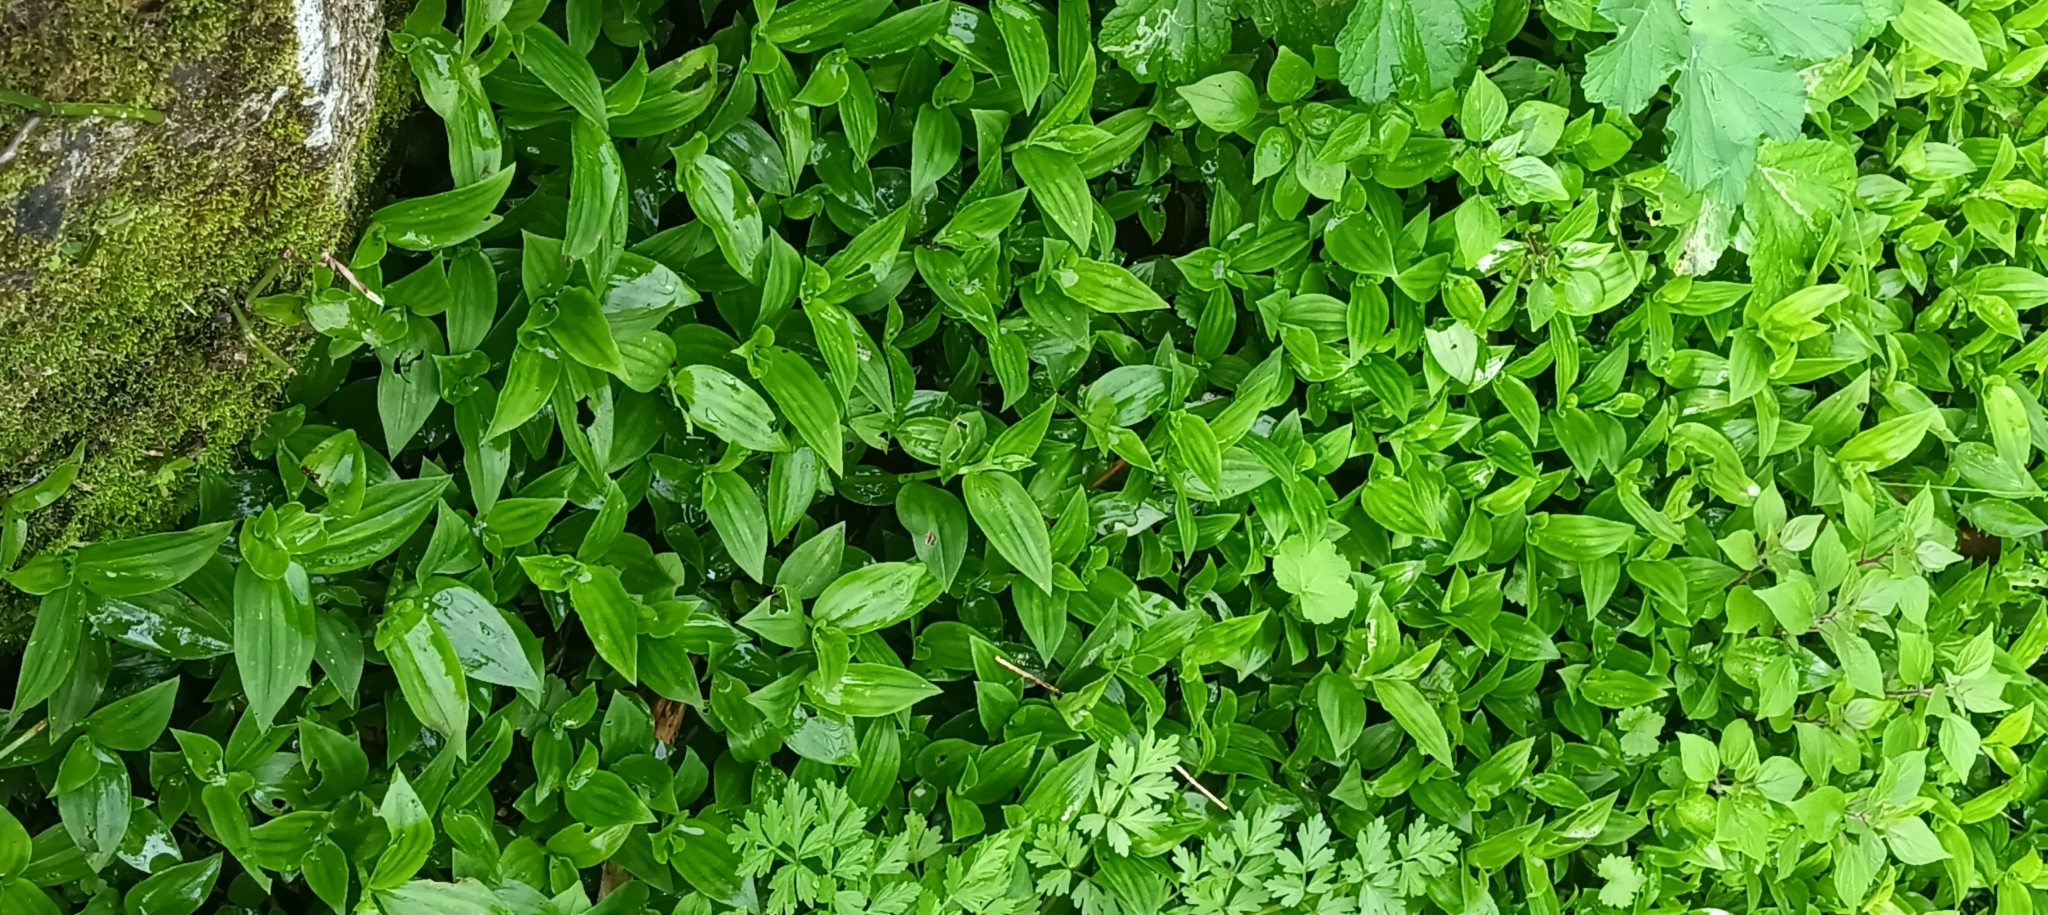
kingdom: Plantae
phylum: Tracheophyta
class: Liliopsida
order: Commelinales
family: Commelinaceae
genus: Tradescantia
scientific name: Tradescantia fluminensis
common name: Wandering-jew
